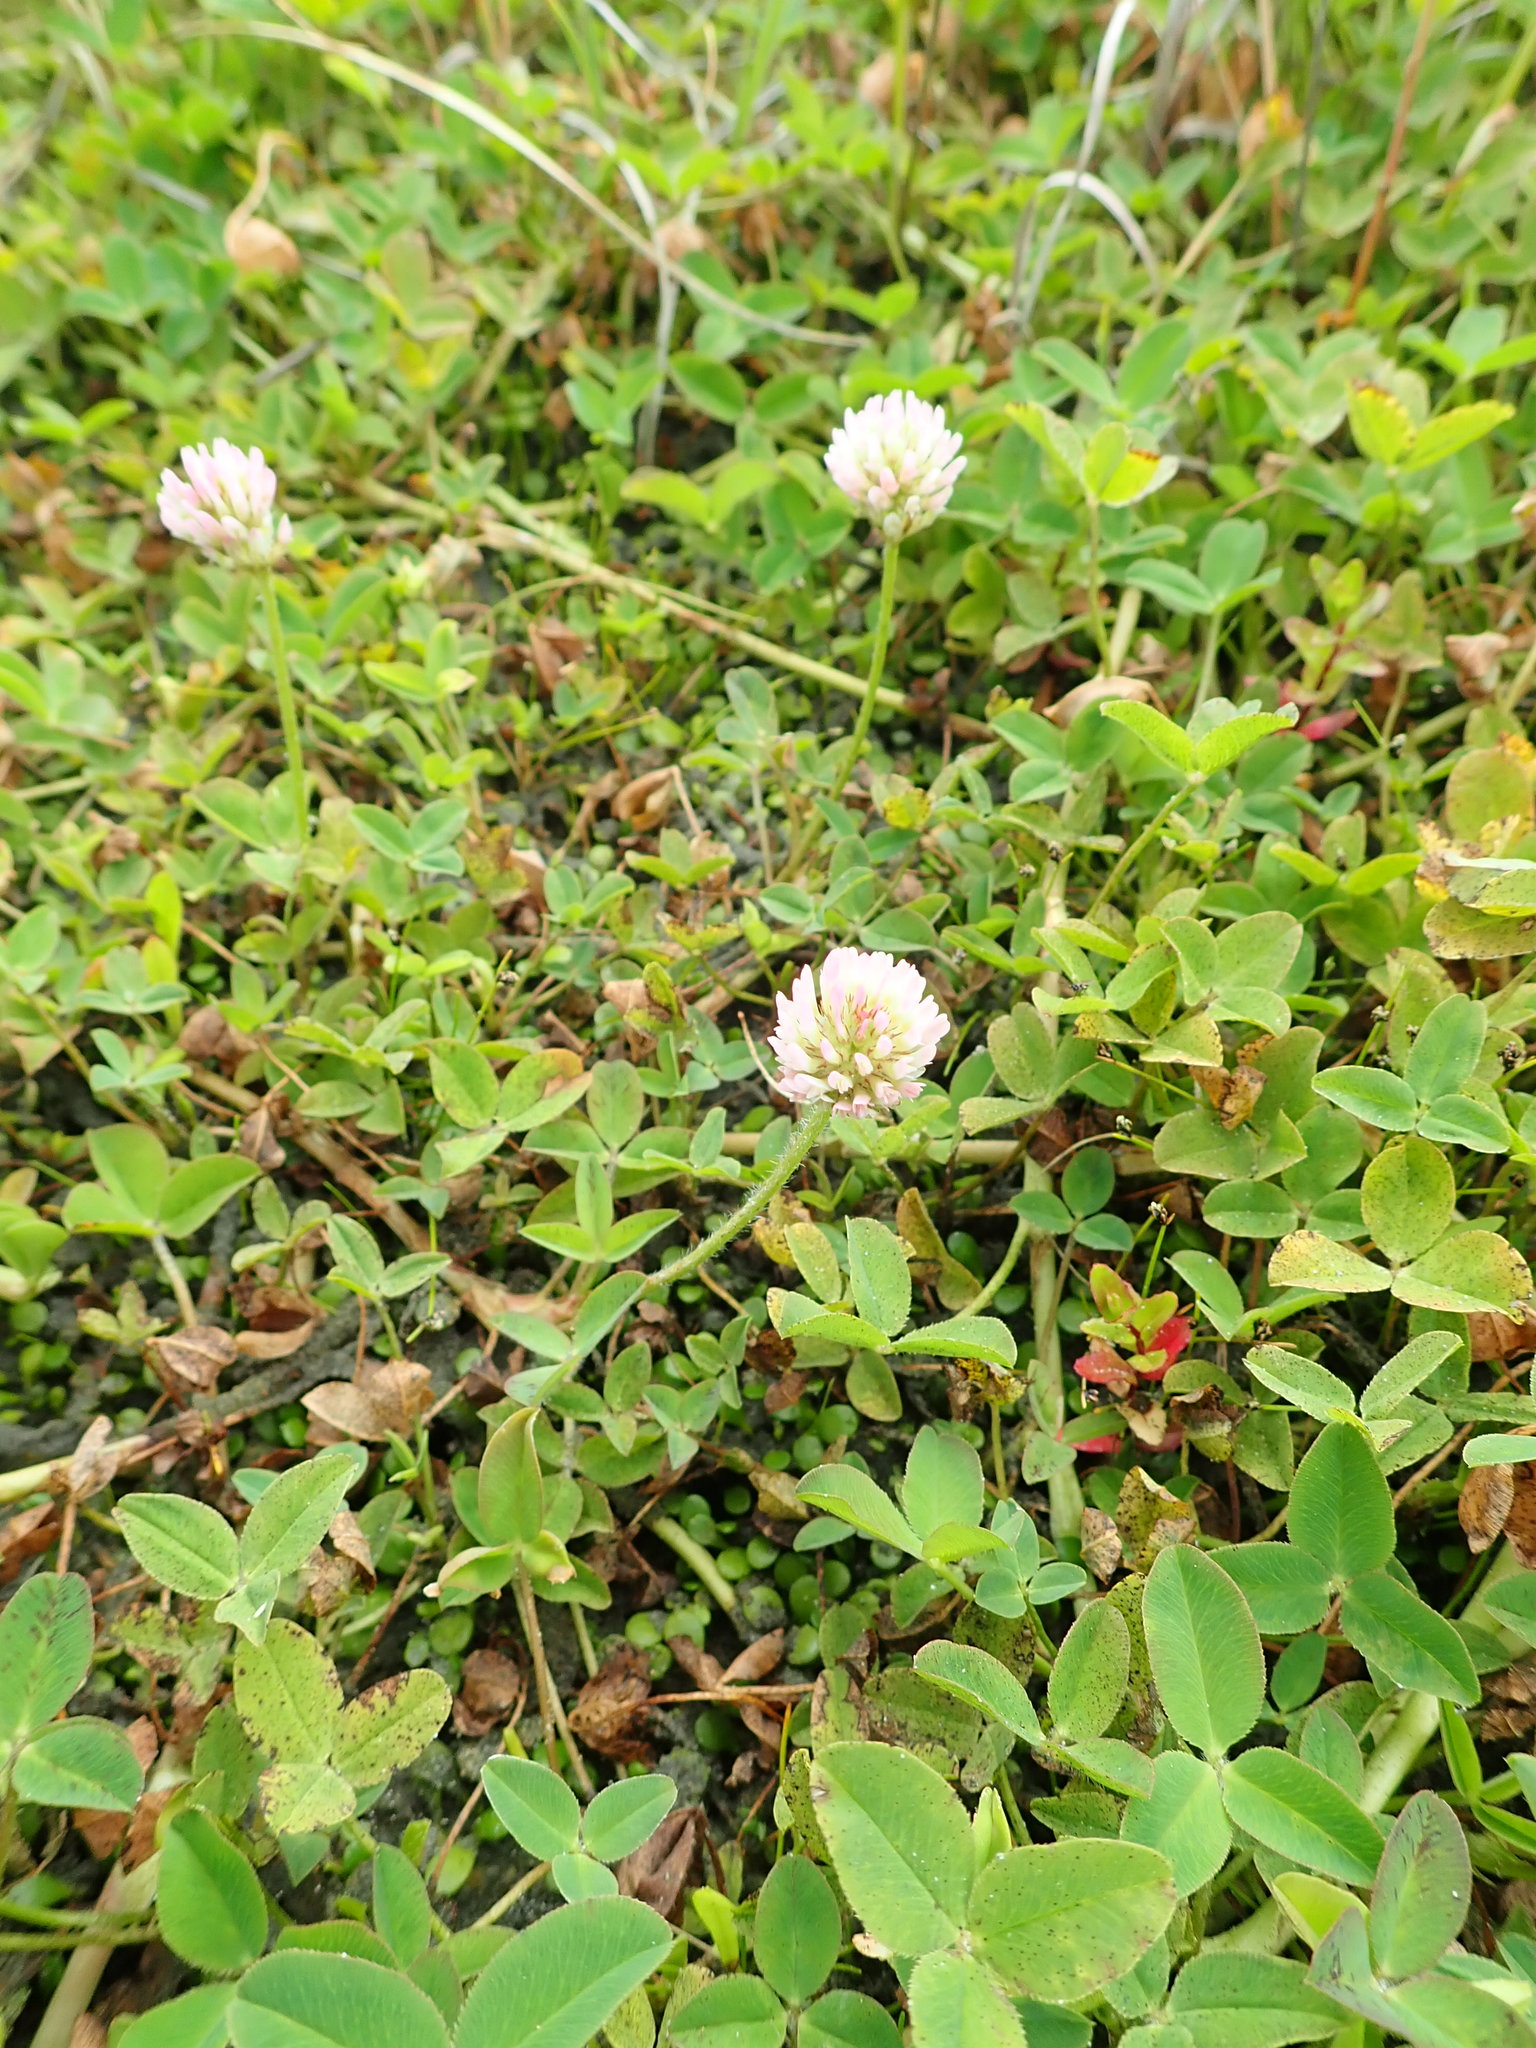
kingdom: Plantae
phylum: Tracheophyta
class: Magnoliopsida
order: Fabales
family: Fabaceae
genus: Trifolium
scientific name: Trifolium fragiferum
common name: Strawberry clover
